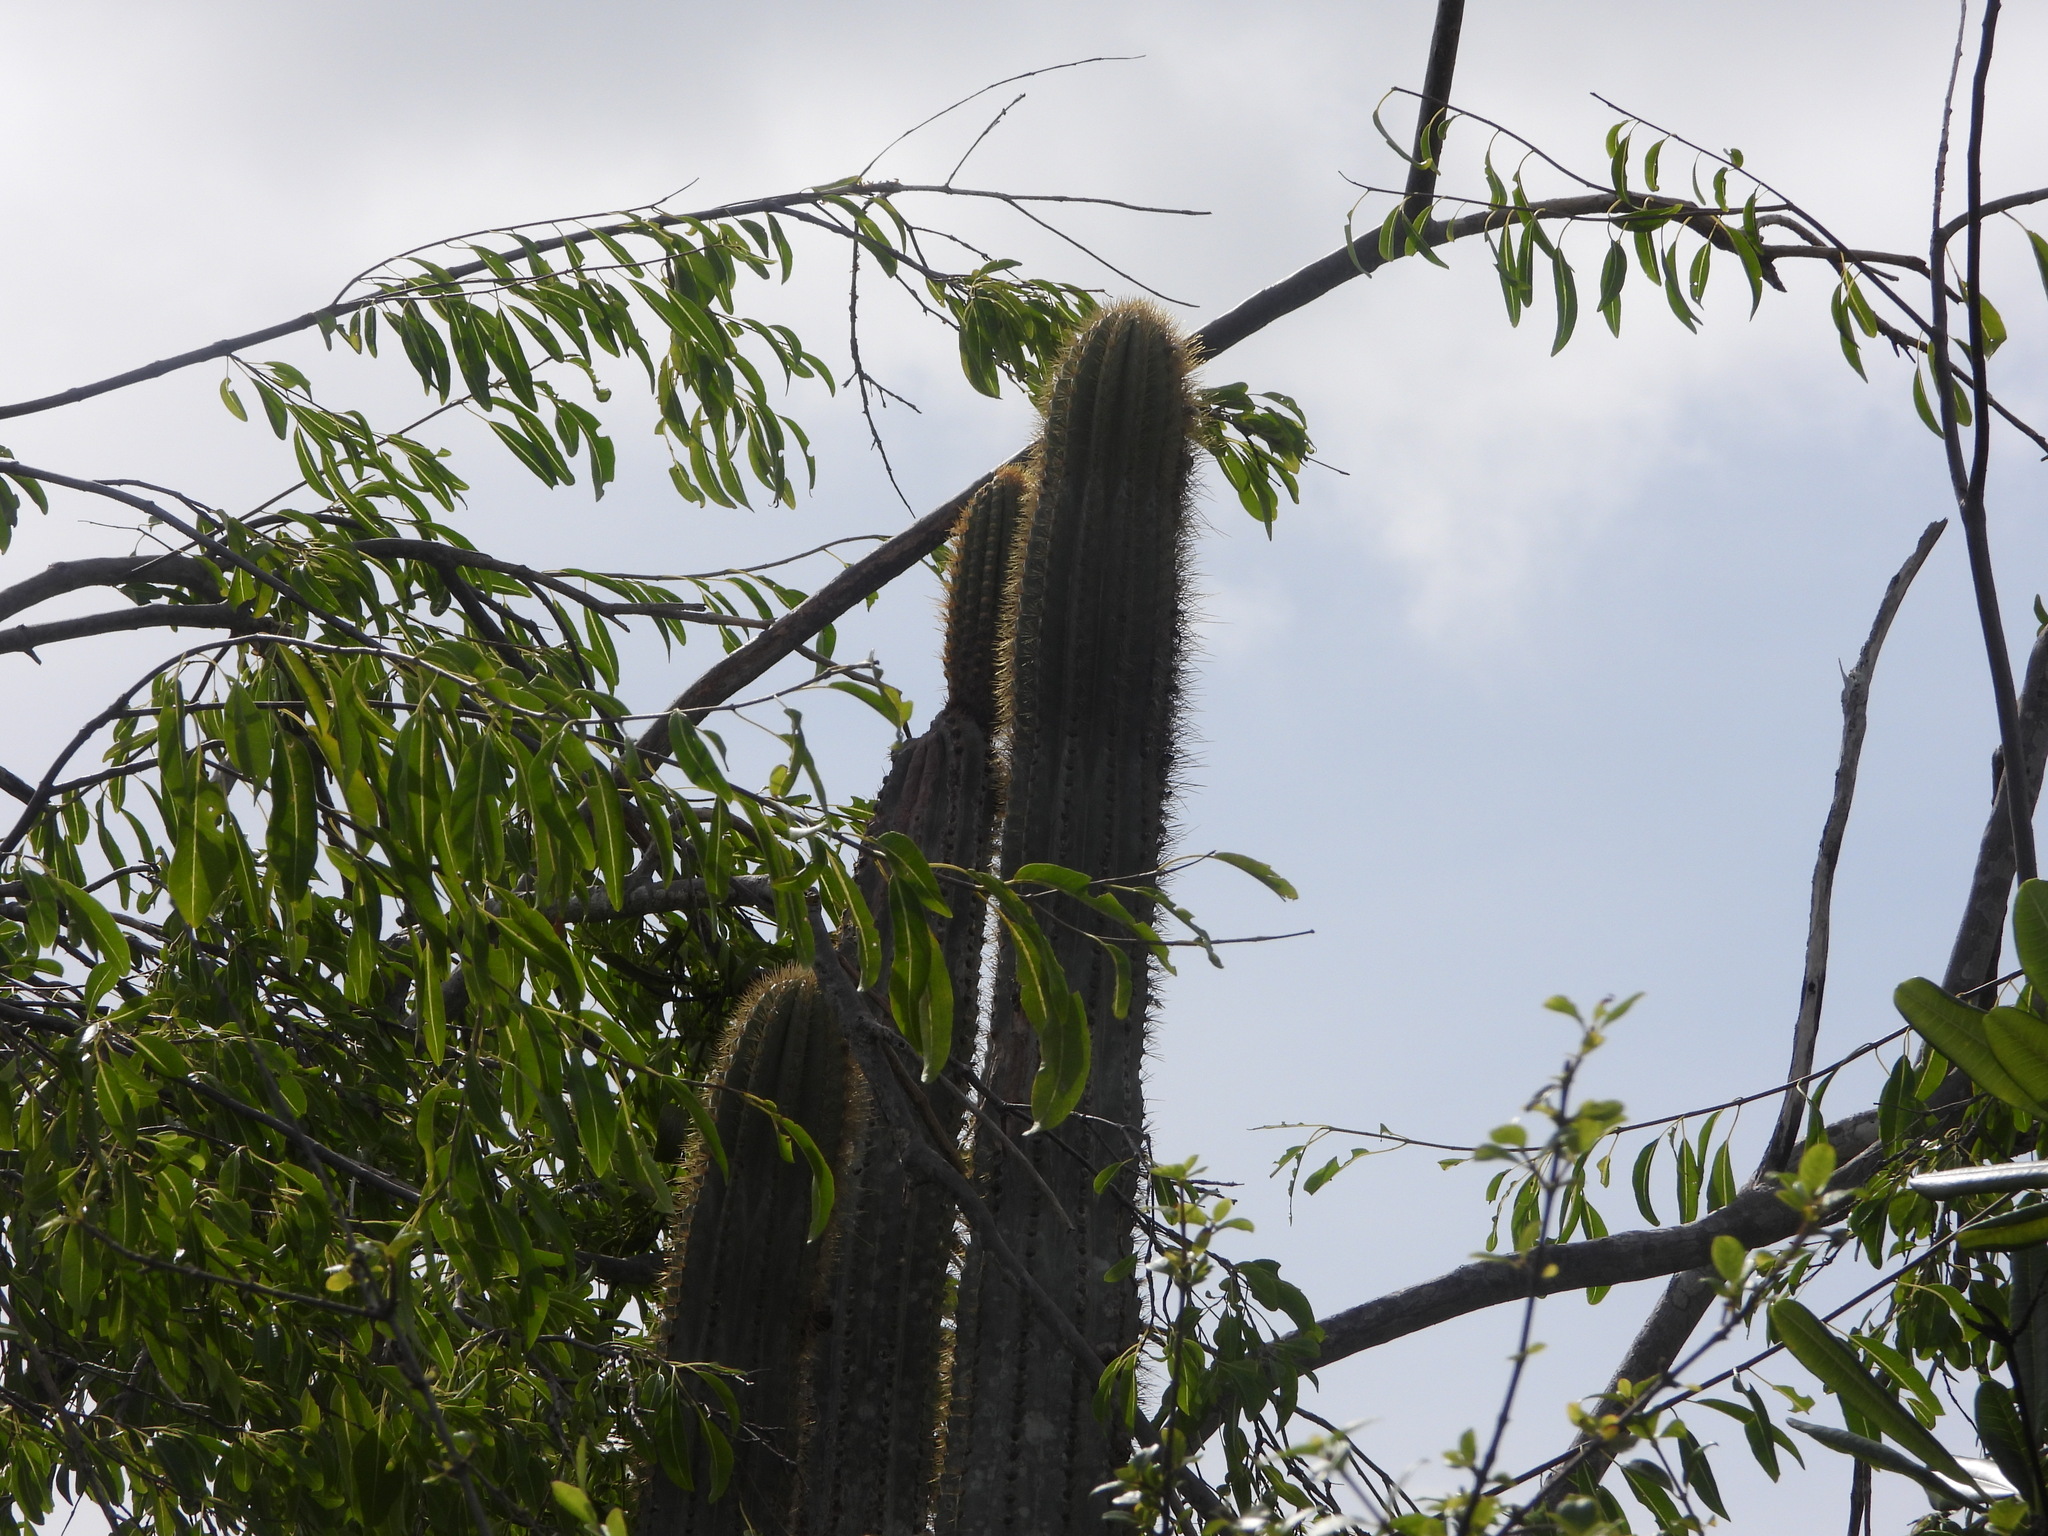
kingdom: Plantae
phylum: Tracheophyta
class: Magnoliopsida
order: Caryophyllales
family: Cactaceae
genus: Pilosocereus
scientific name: Pilosocereus jamaicensis
